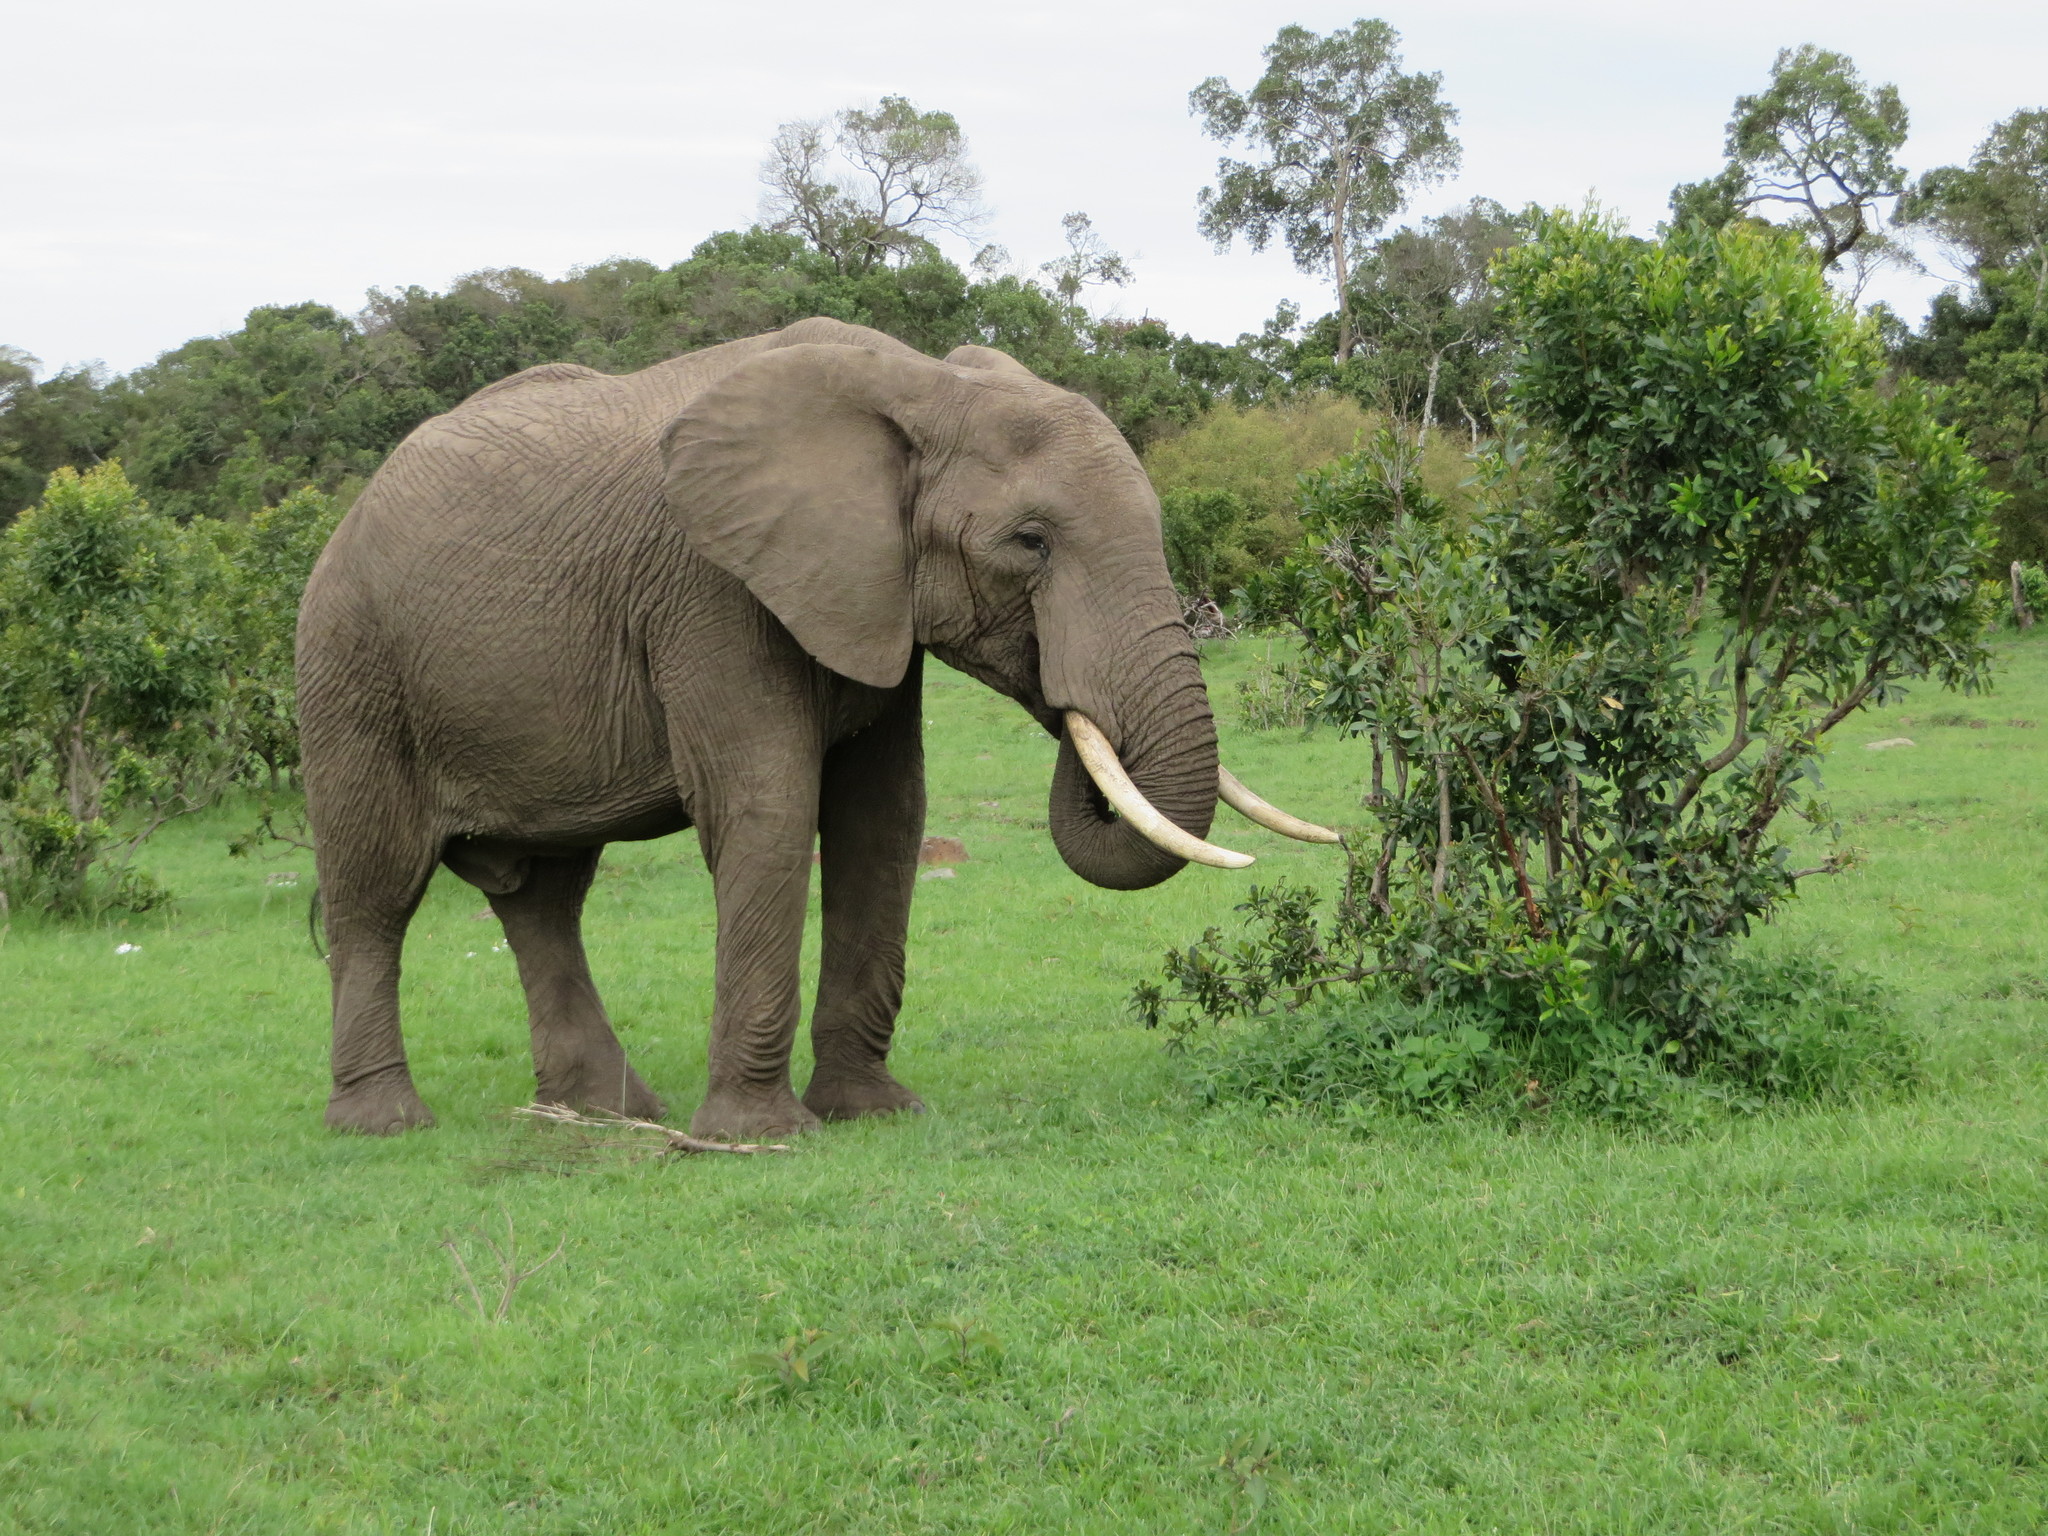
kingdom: Animalia
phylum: Chordata
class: Mammalia
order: Proboscidea
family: Elephantidae
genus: Loxodonta
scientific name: Loxodonta africana
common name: African elephant
